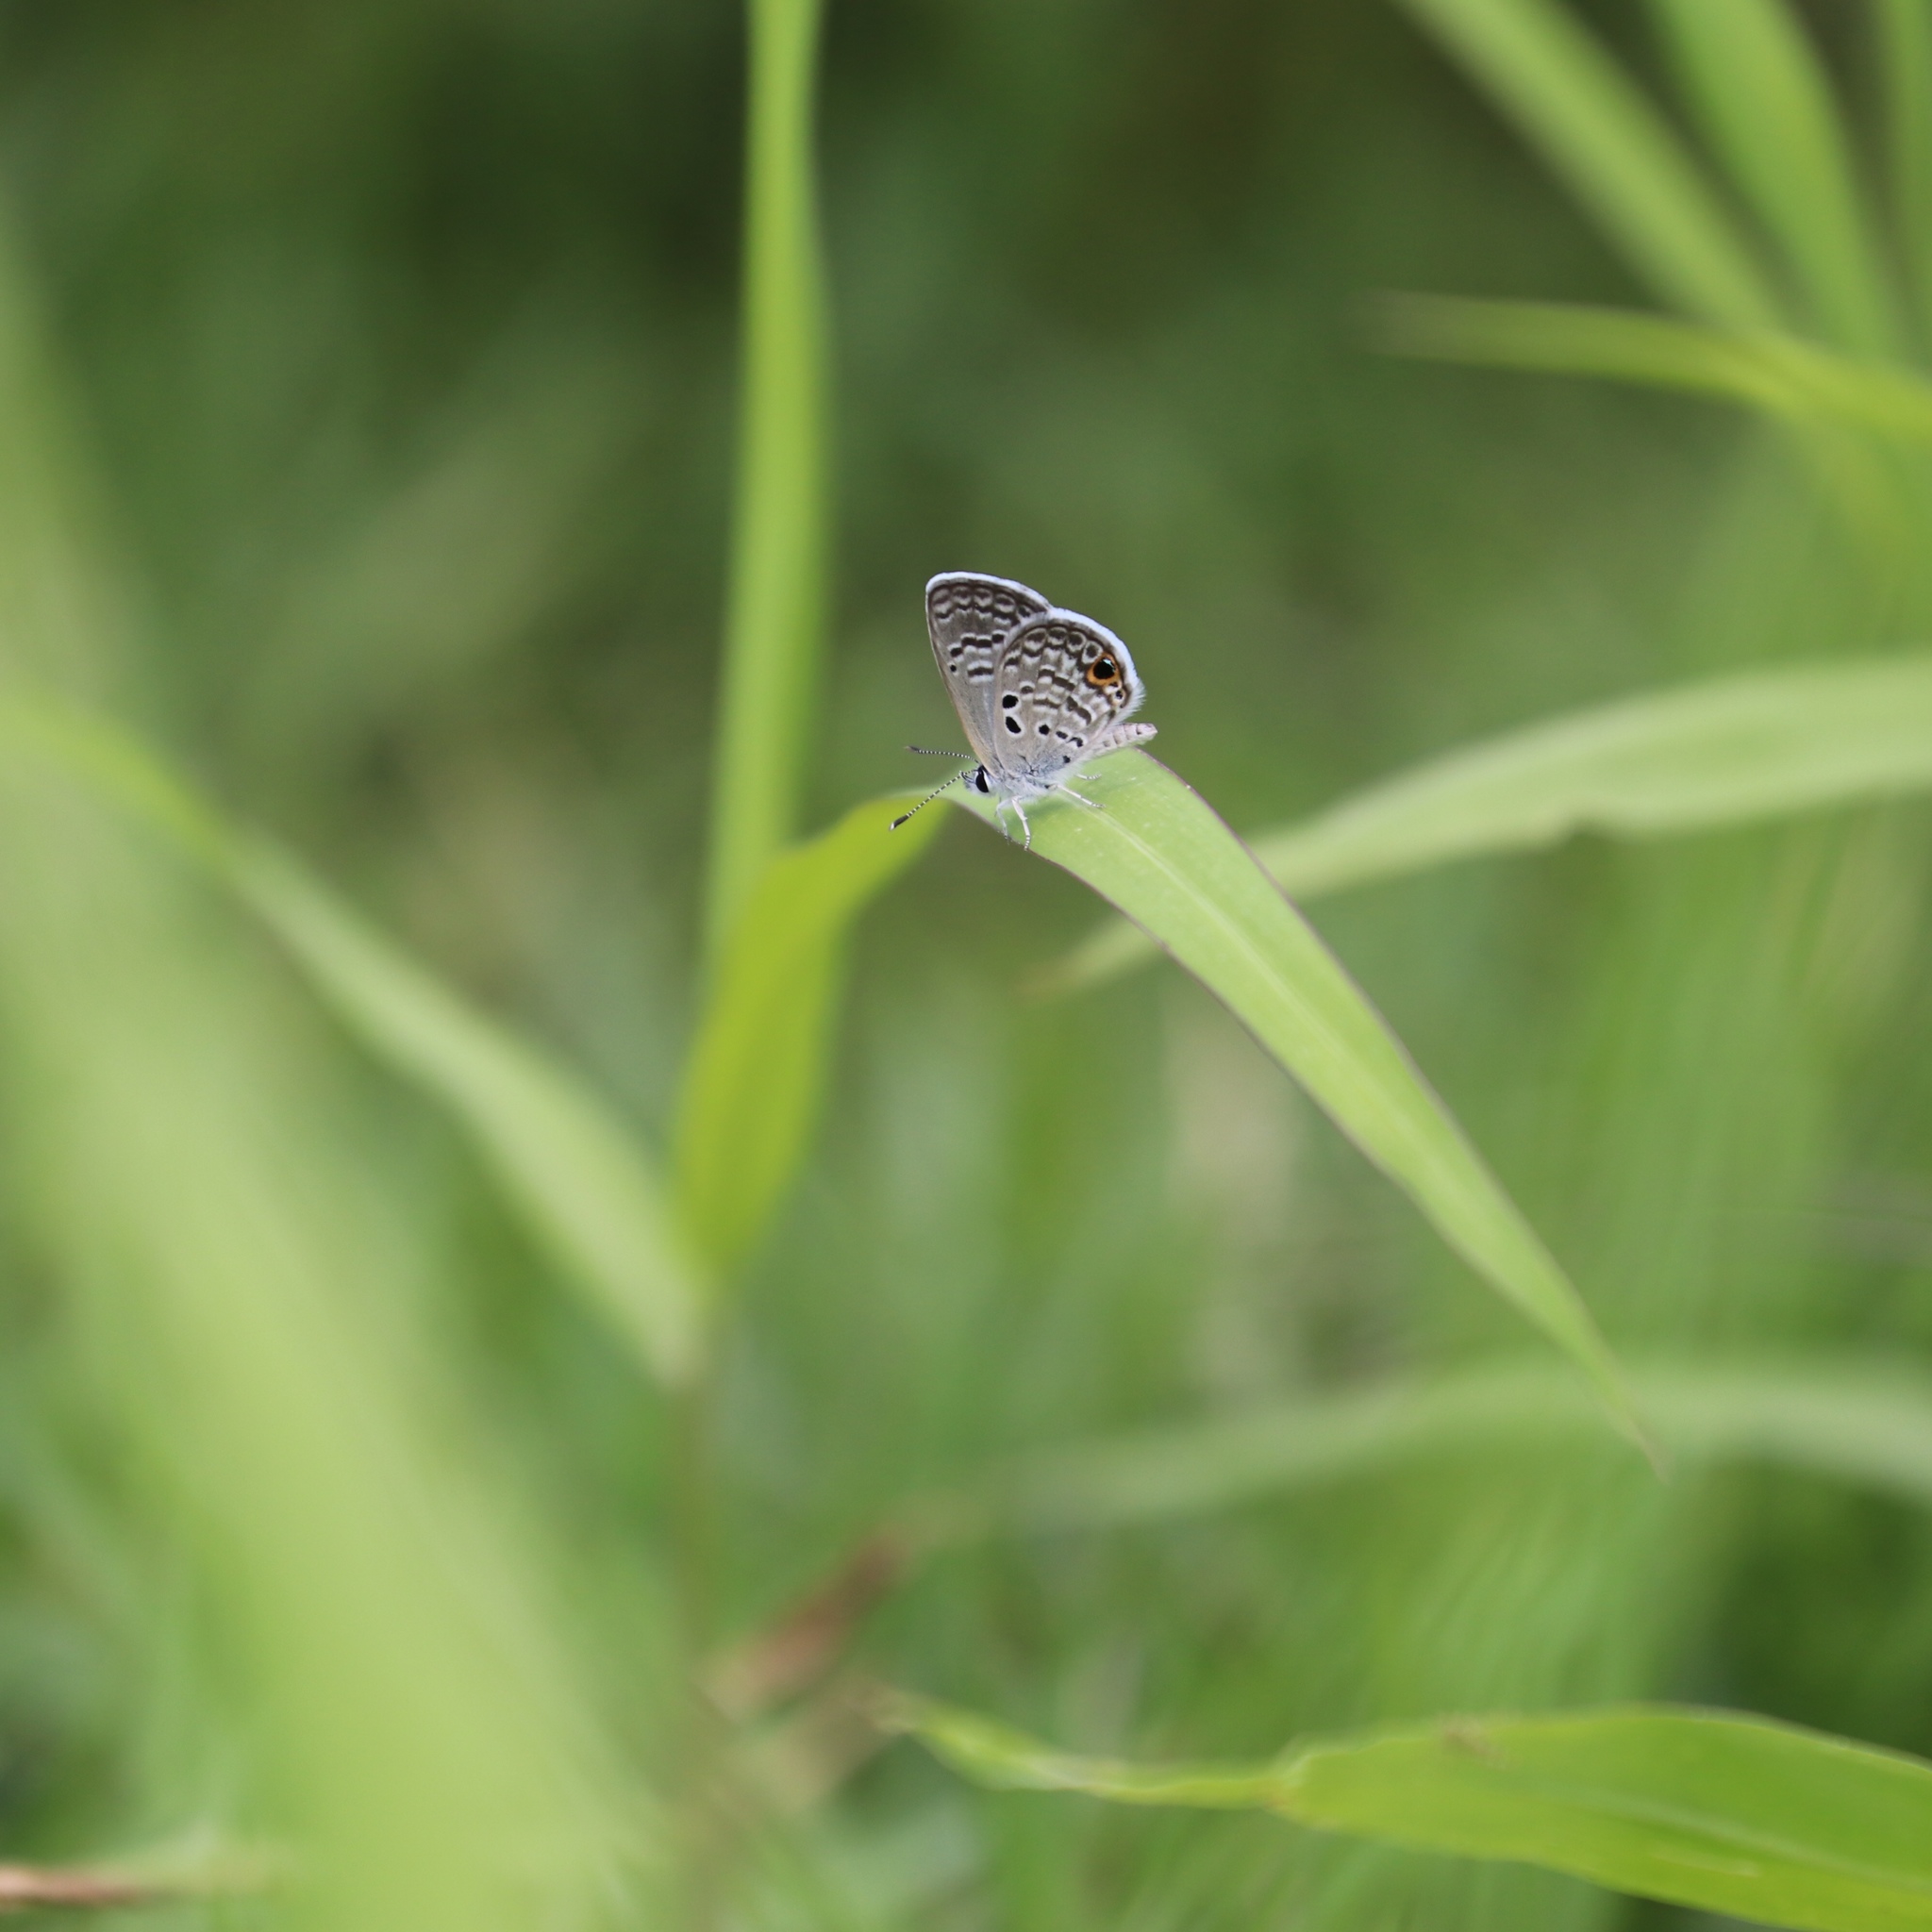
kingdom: Animalia
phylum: Arthropoda
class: Insecta
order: Lepidoptera
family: Lycaenidae
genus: Hemiargus
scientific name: Hemiargus ceraunus
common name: Ceraunus blue
